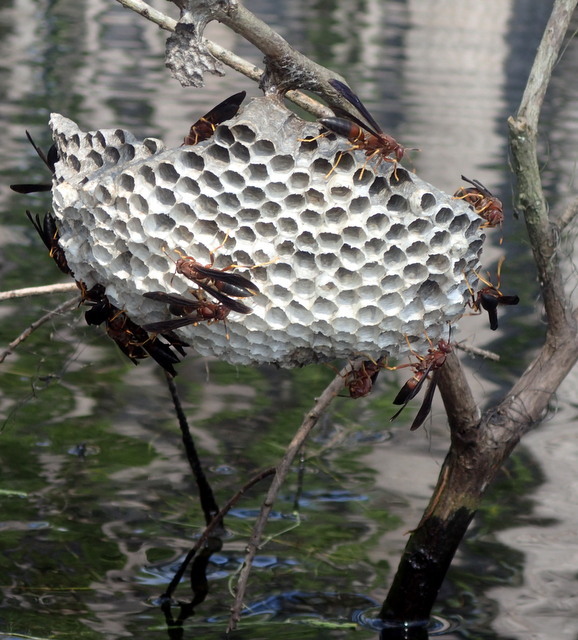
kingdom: Animalia
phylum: Arthropoda
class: Insecta
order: Hymenoptera
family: Eumenidae
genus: Polistes
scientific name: Polistes annularis
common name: Ringed paper wasp
